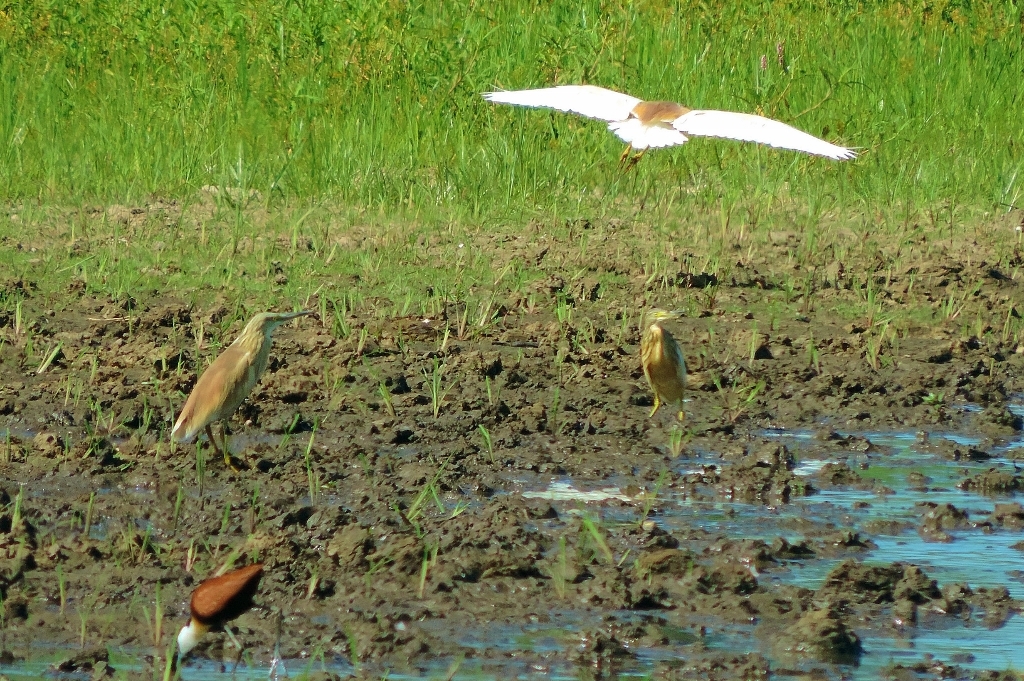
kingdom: Animalia
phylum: Chordata
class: Aves
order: Pelecaniformes
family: Ardeidae
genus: Ardeola
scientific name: Ardeola ralloides
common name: Squacco heron
